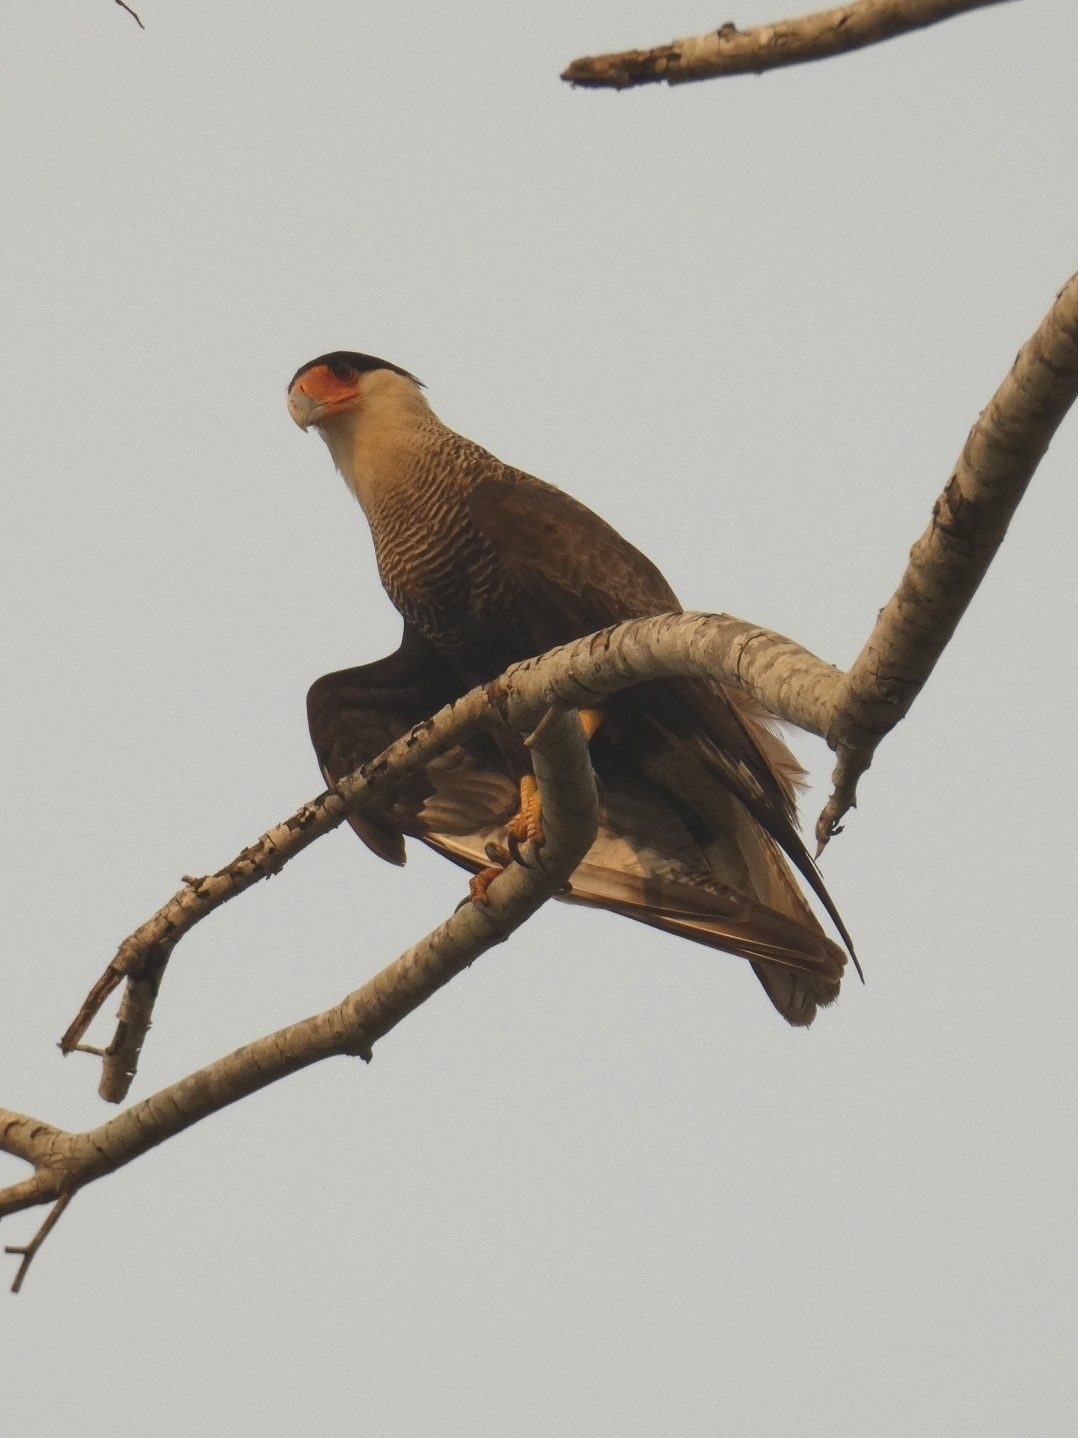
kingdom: Animalia
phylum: Chordata
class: Aves
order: Falconiformes
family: Falconidae
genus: Caracara
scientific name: Caracara plancus
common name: Southern caracara
